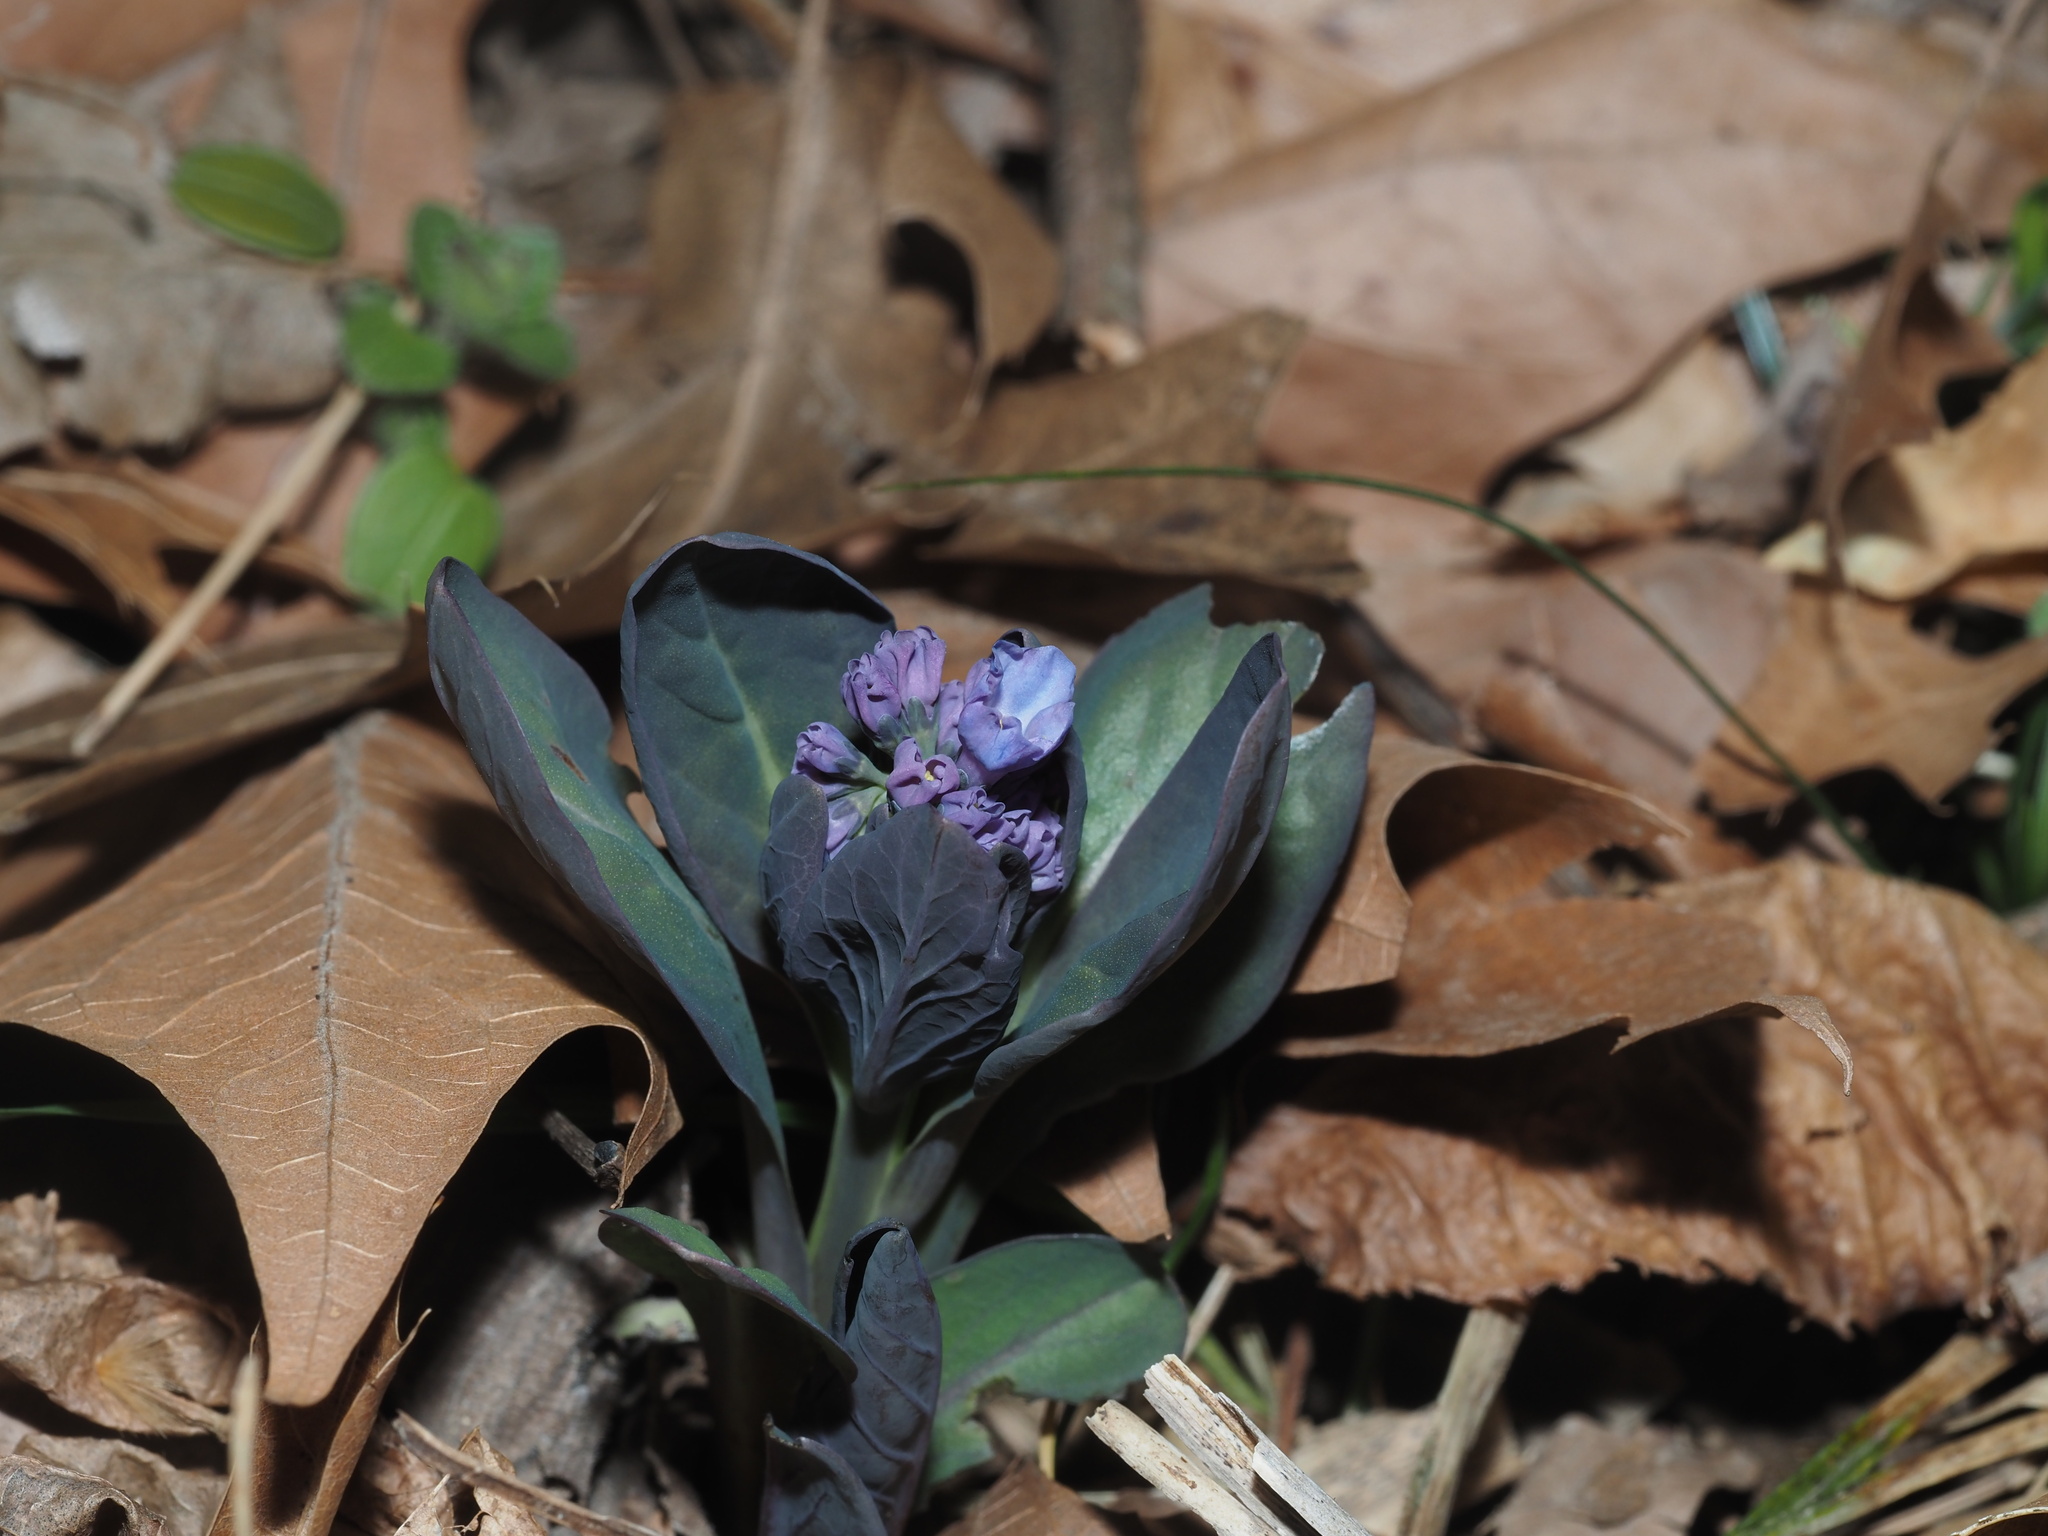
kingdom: Plantae
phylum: Tracheophyta
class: Magnoliopsida
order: Boraginales
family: Boraginaceae
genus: Mertensia
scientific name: Mertensia virginica
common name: Virginia bluebells
